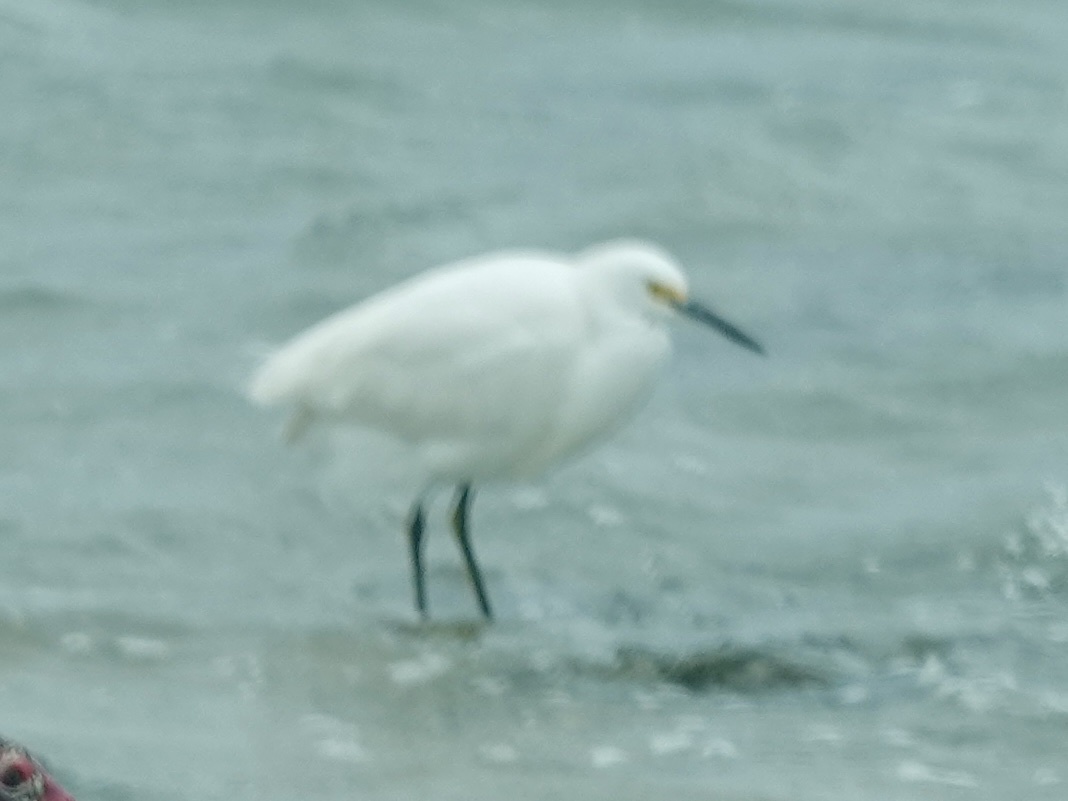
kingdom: Animalia
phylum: Chordata
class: Aves
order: Pelecaniformes
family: Ardeidae
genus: Egretta
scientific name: Egretta thula
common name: Snowy egret
